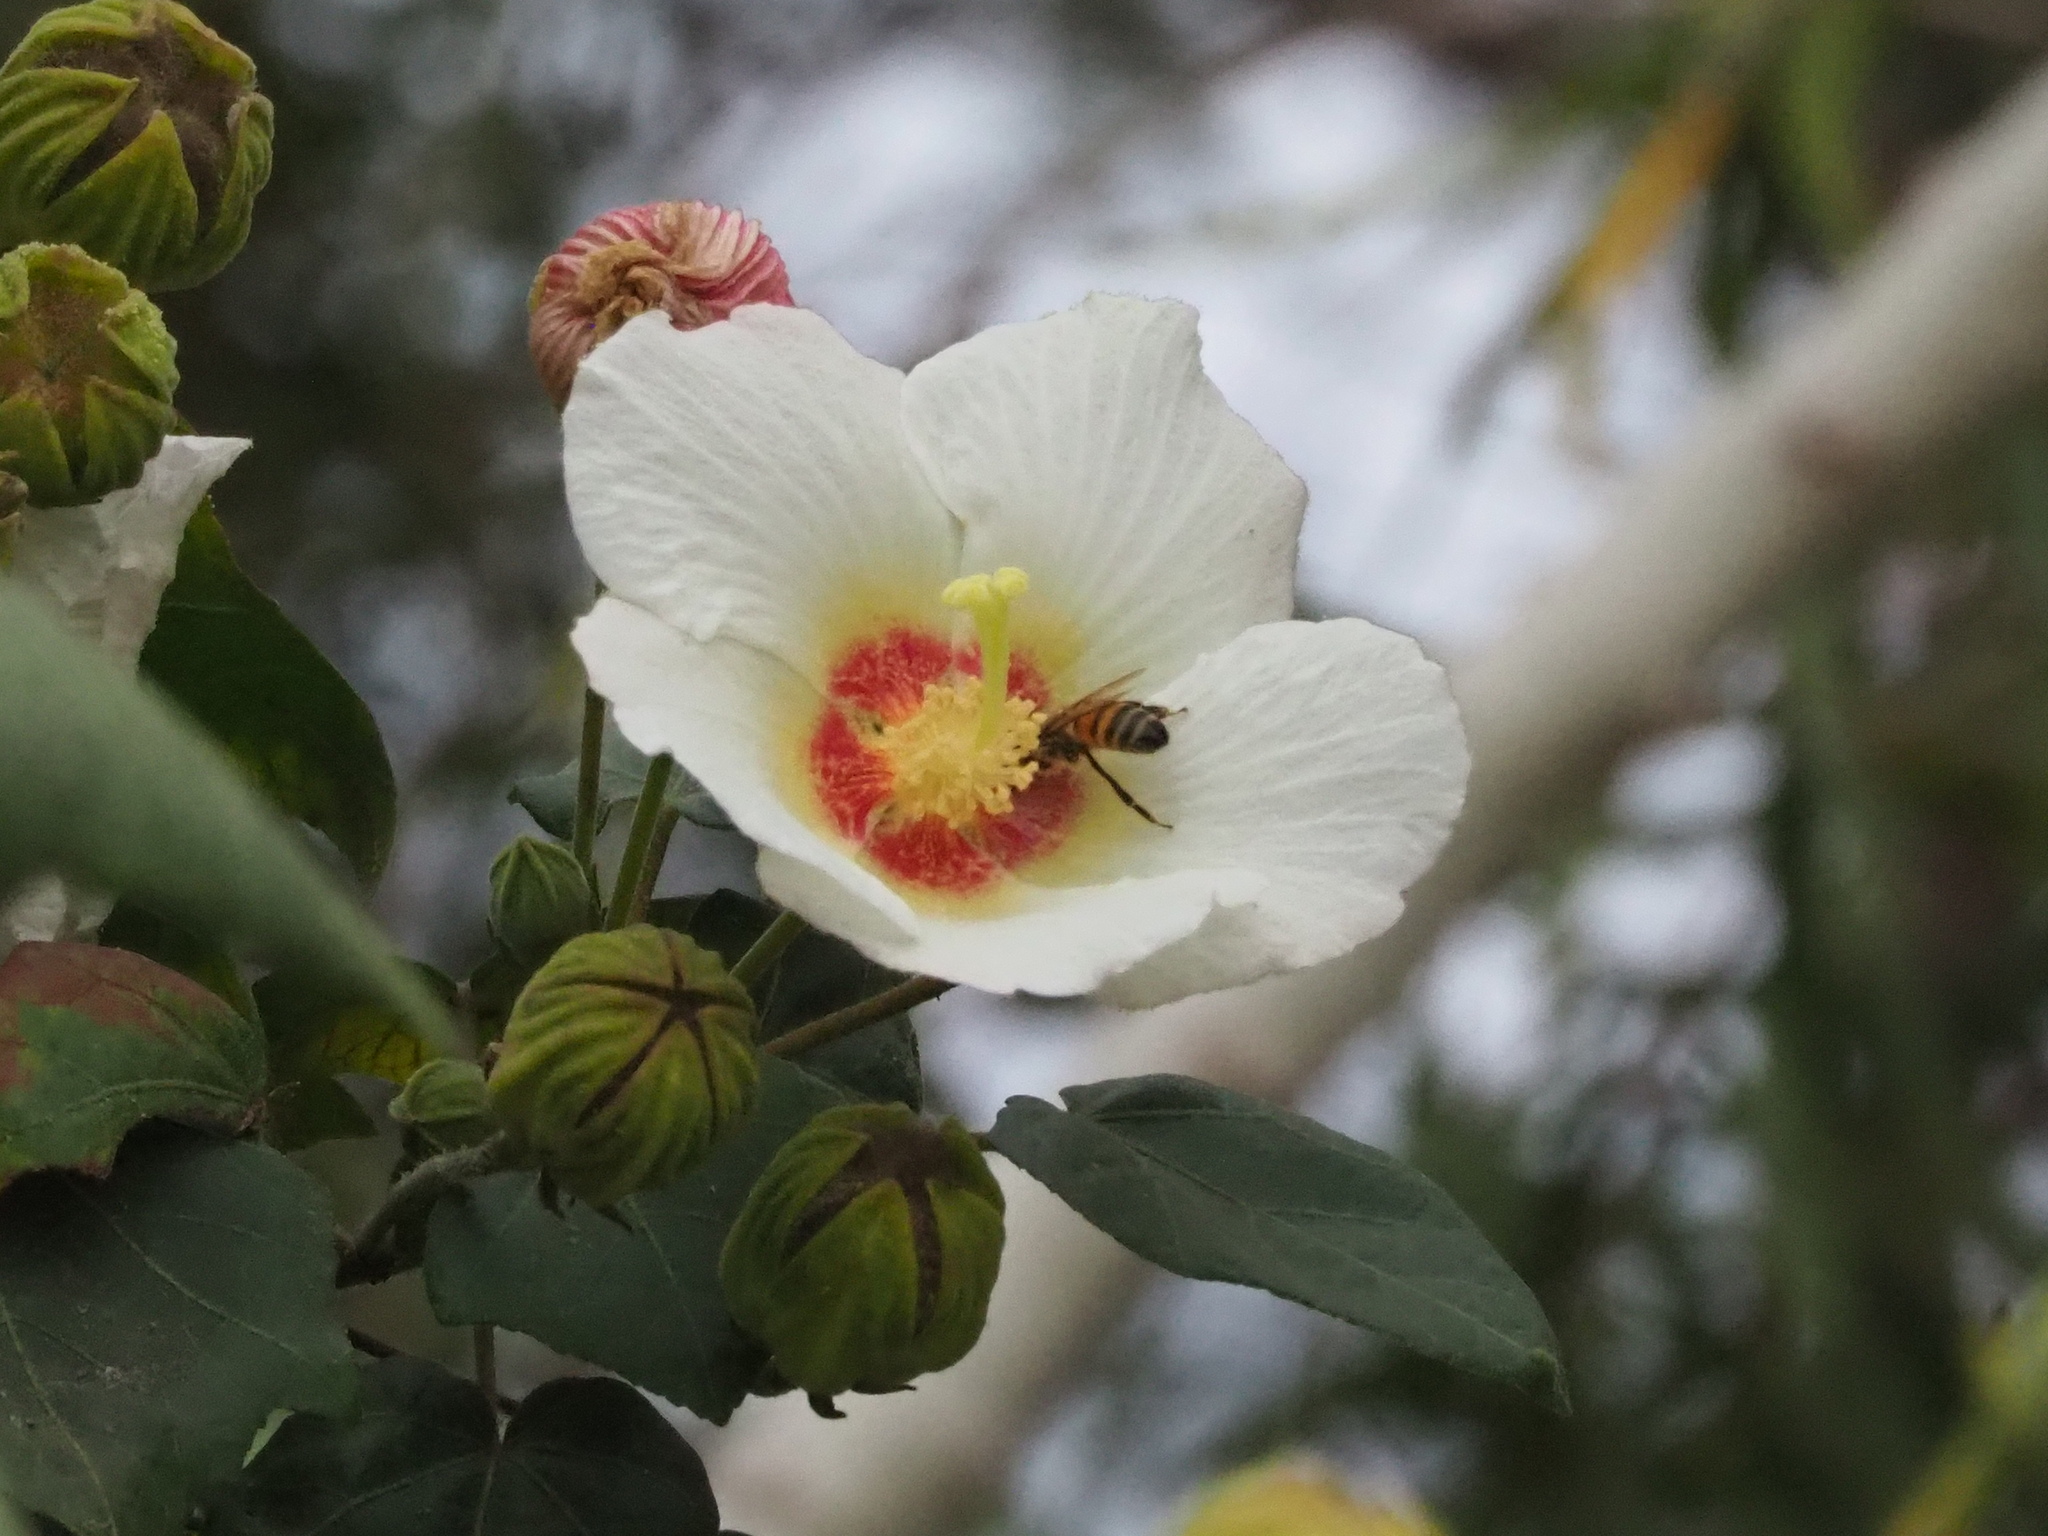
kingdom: Plantae
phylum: Tracheophyta
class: Magnoliopsida
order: Malvales
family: Malvaceae
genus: Hibiscus
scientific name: Hibiscus taiwanensis
